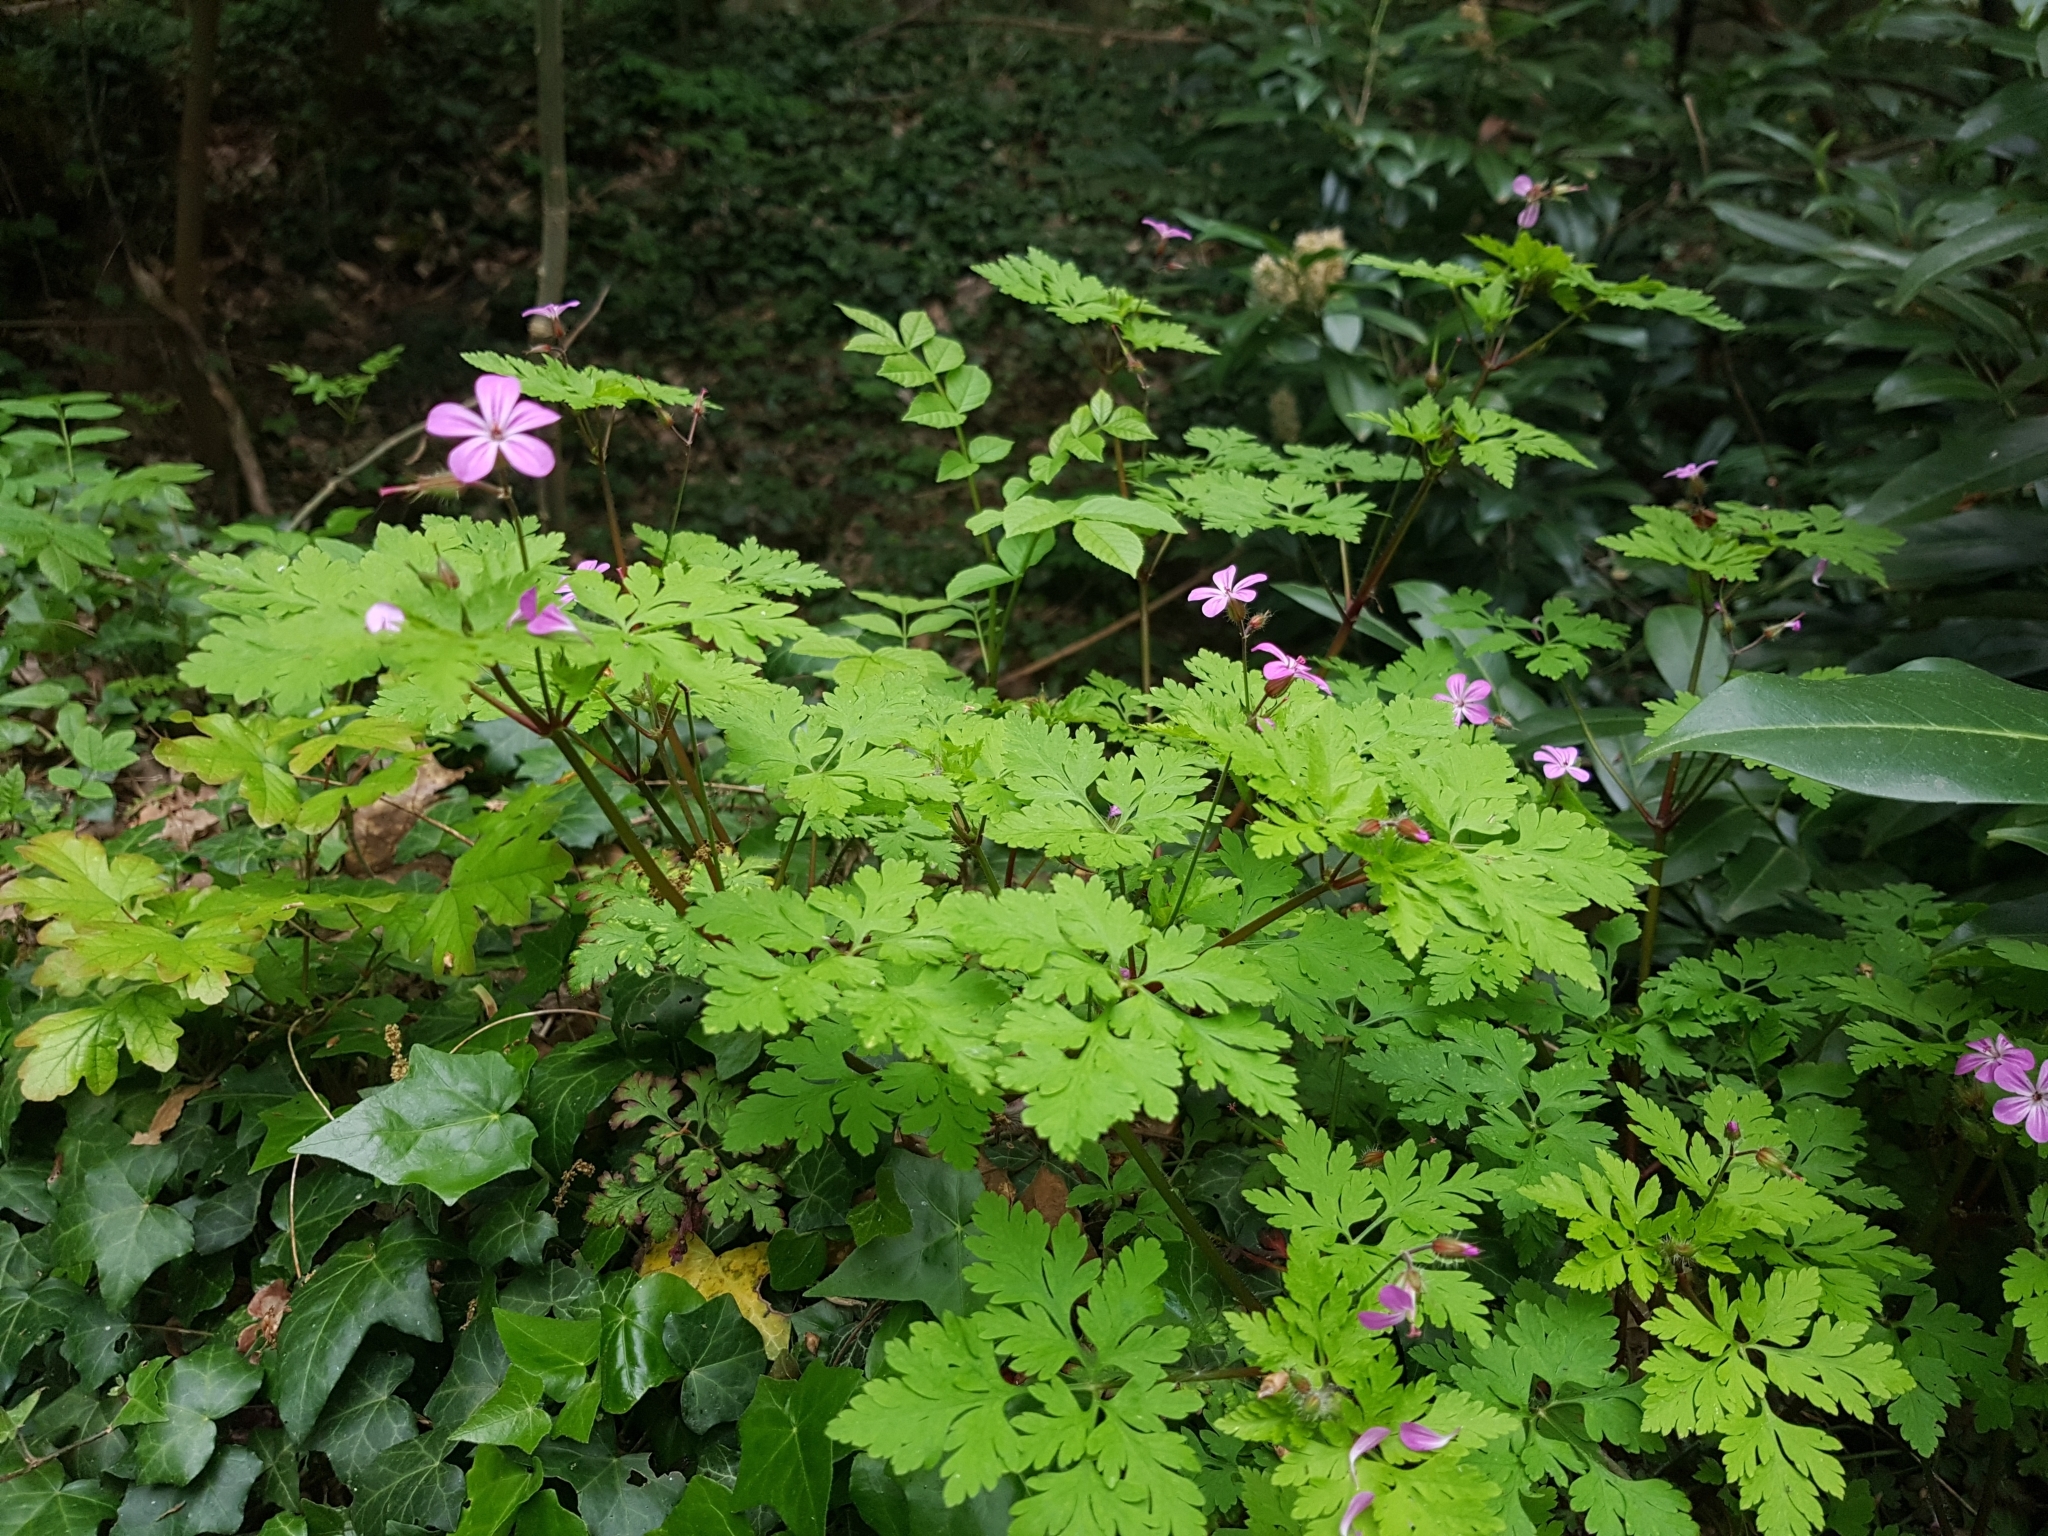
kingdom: Plantae
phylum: Tracheophyta
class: Magnoliopsida
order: Geraniales
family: Geraniaceae
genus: Geranium
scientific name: Geranium robertianum
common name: Herb-robert
